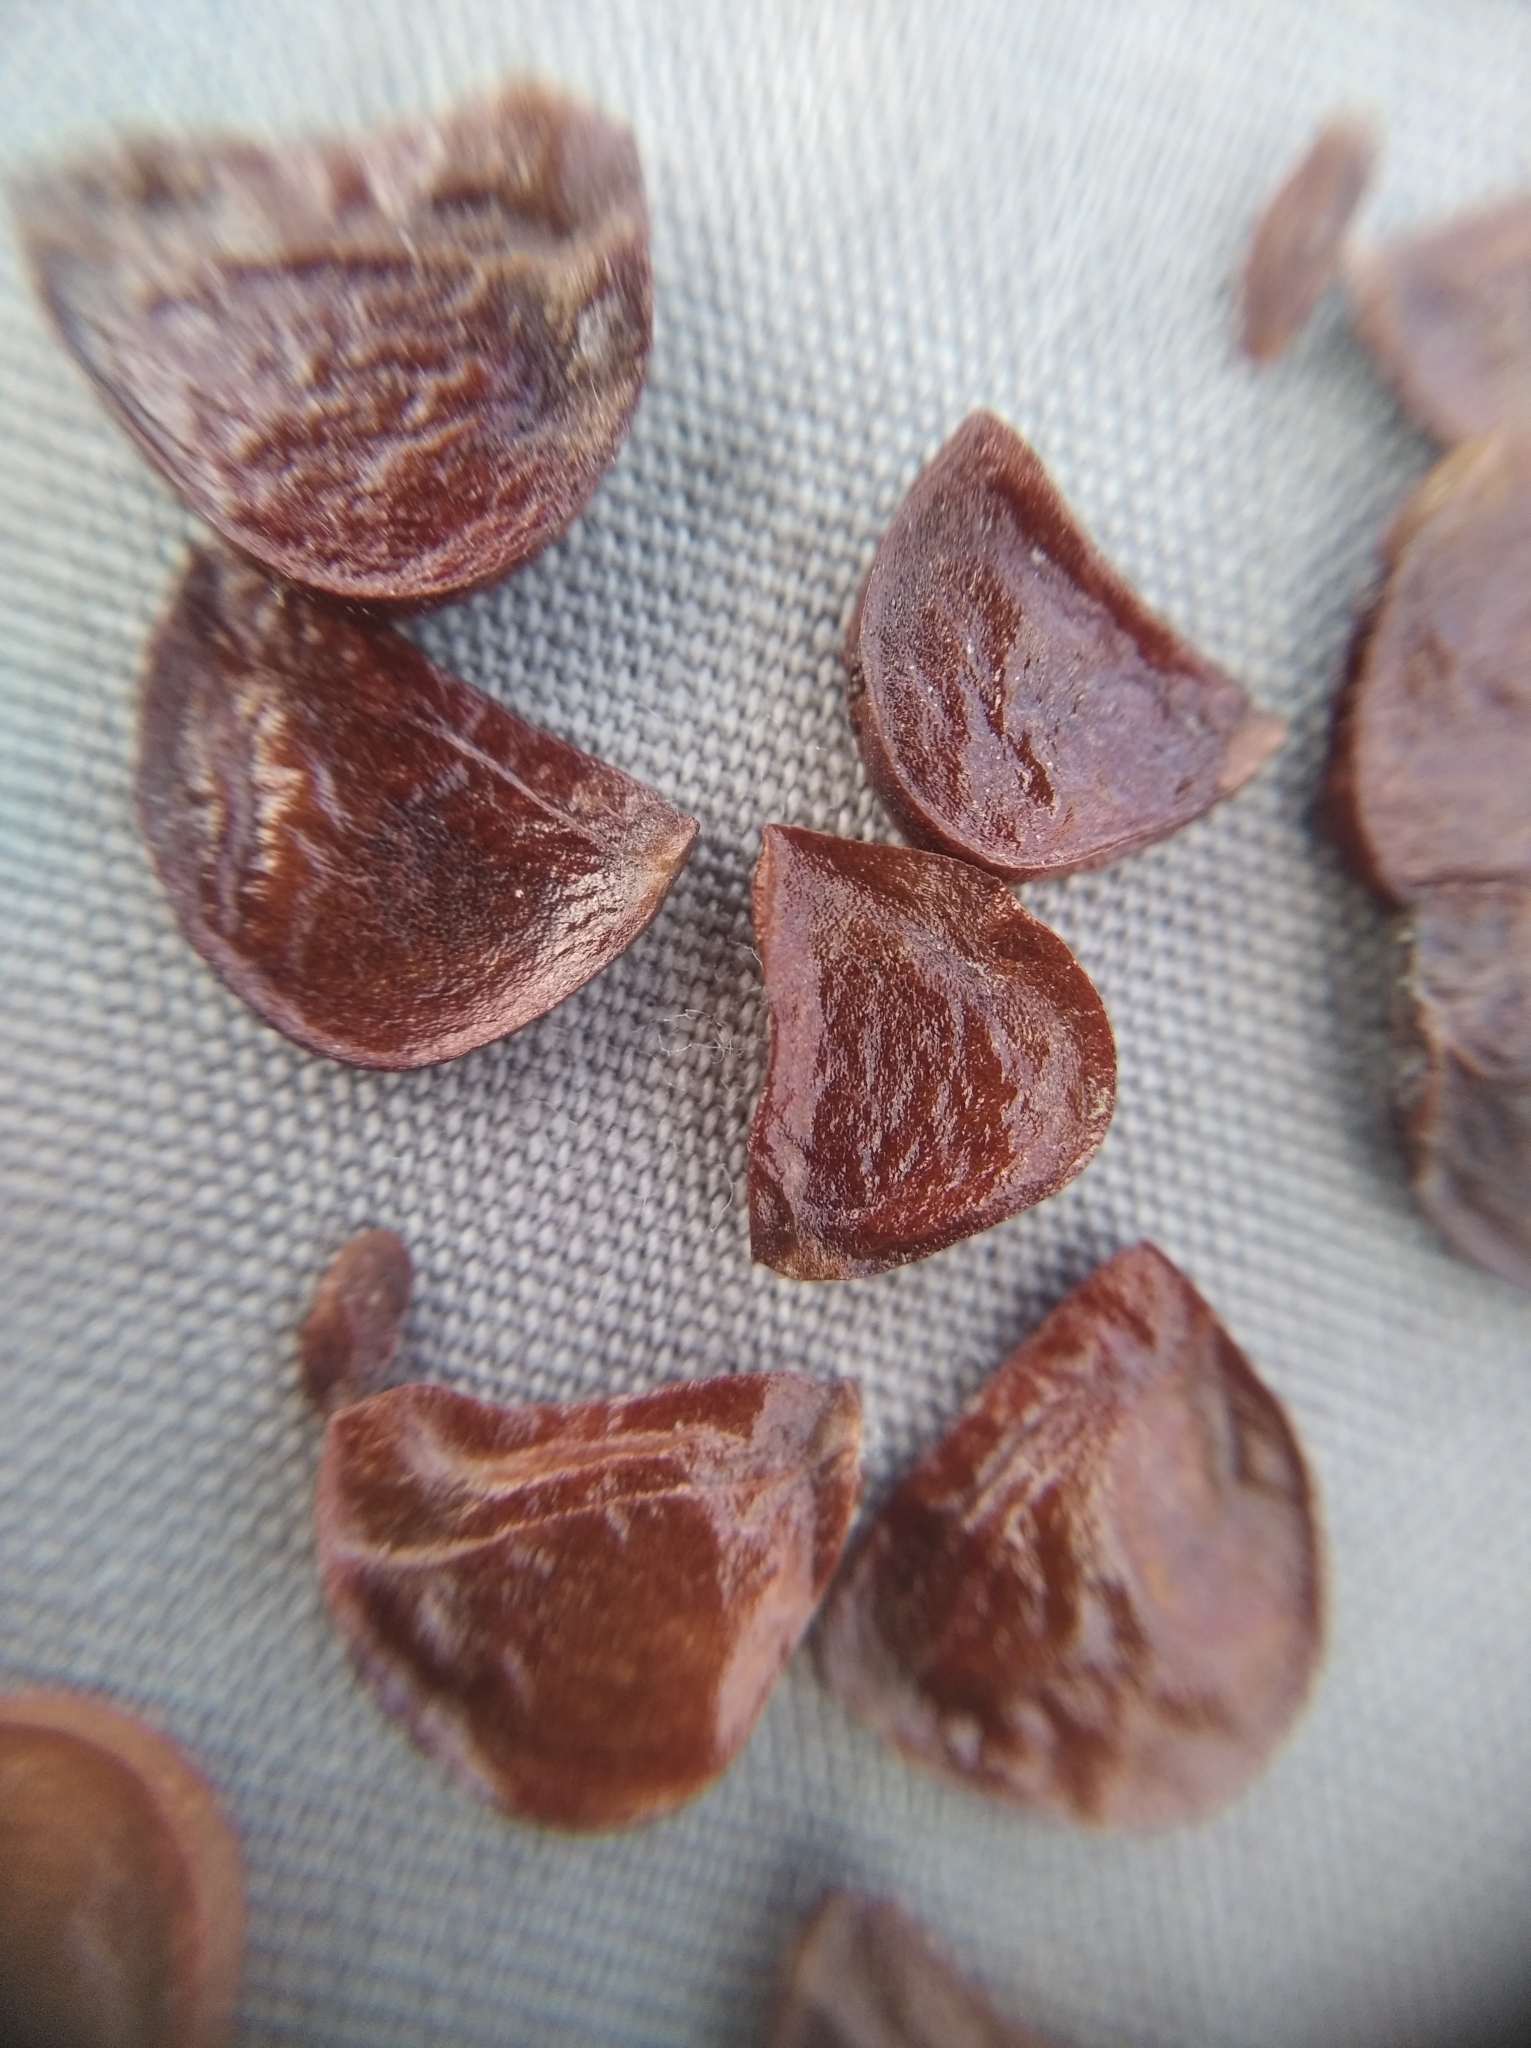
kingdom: Plantae
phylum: Tracheophyta
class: Liliopsida
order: Asparagales
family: Iridaceae
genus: Iris
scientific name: Iris sibirica
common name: Siberian iris
